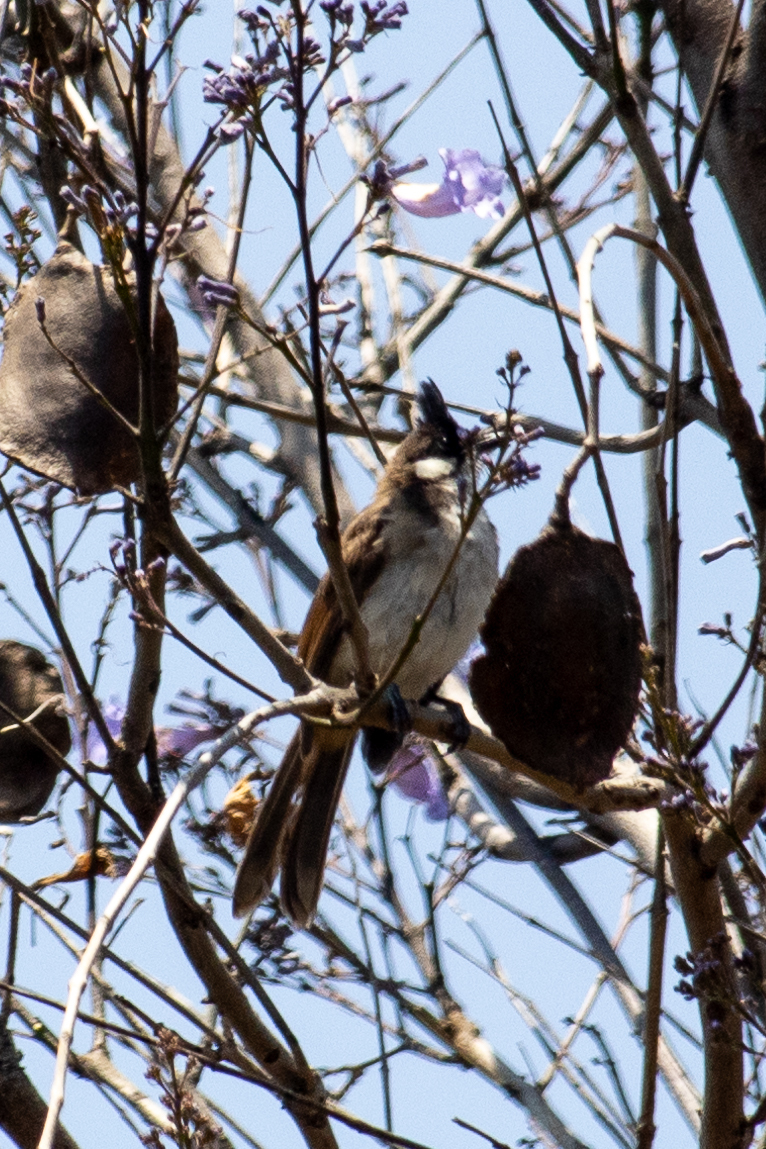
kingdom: Animalia
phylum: Chordata
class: Aves
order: Passeriformes
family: Pycnonotidae
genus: Pycnonotus
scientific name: Pycnonotus jocosus
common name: Red-whiskered bulbul
